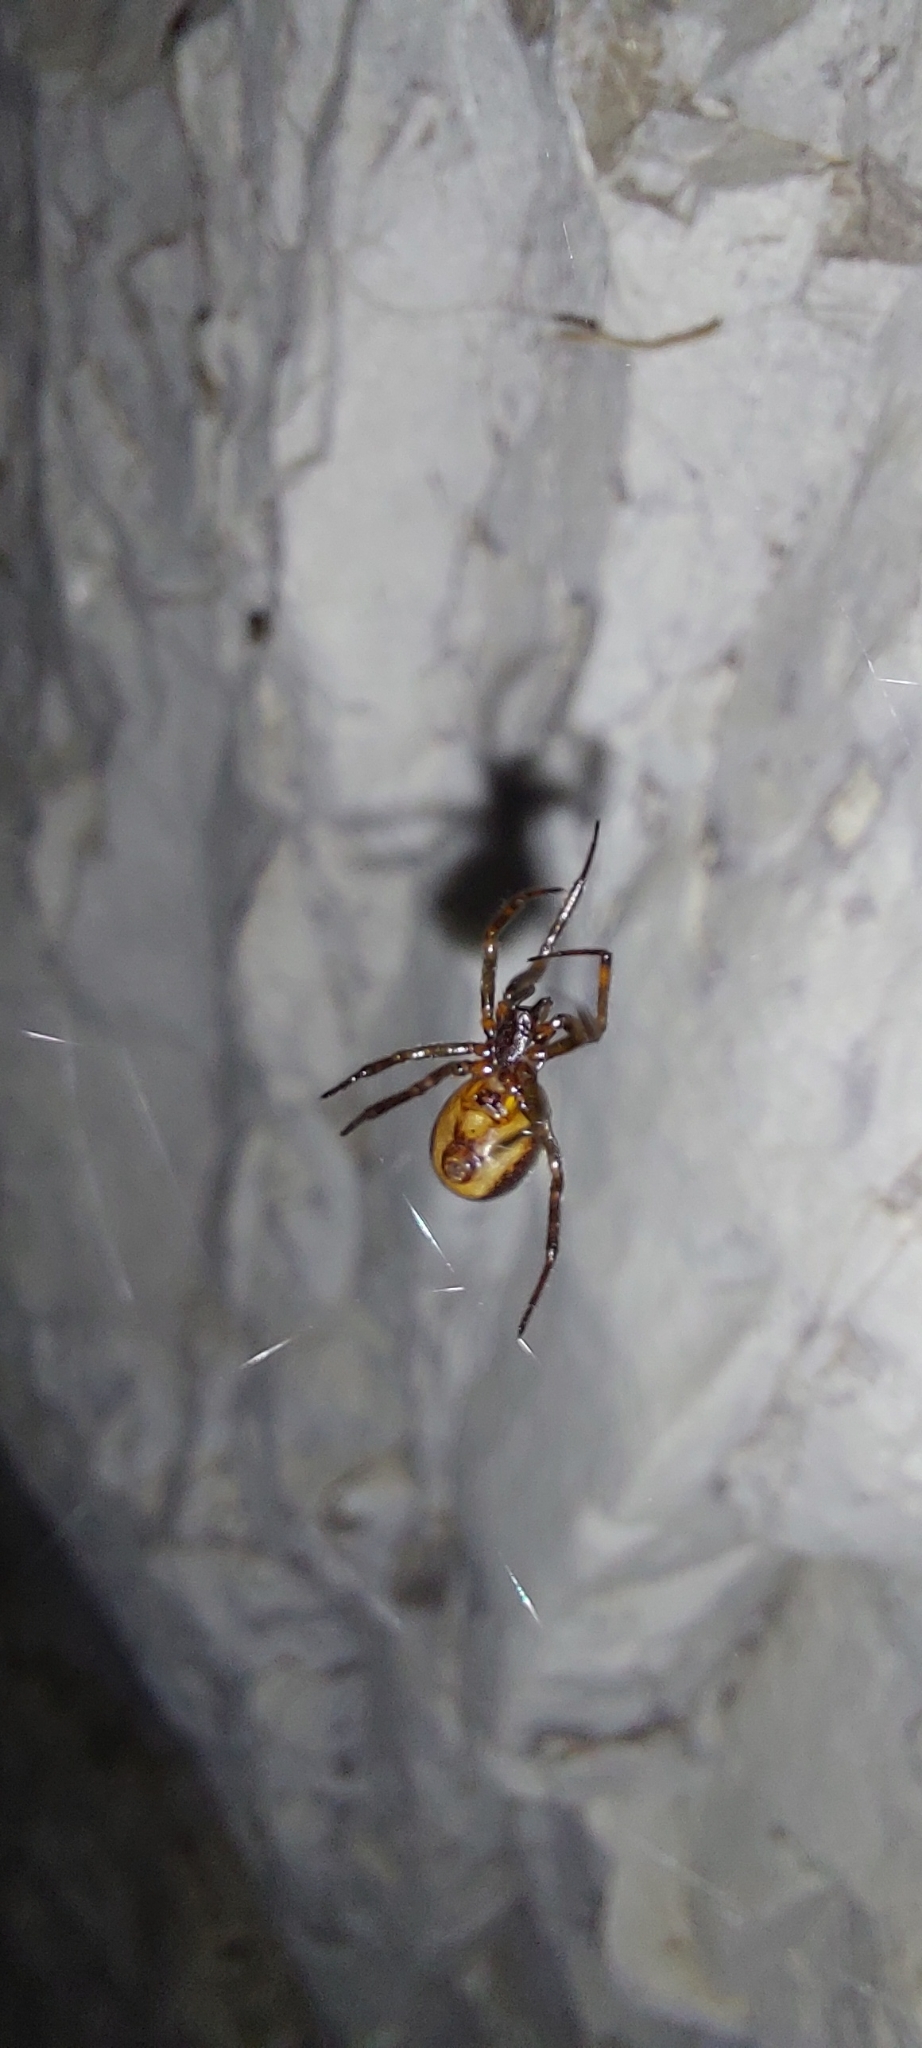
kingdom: Animalia
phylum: Arthropoda
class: Arachnida
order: Araneae
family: Theridiidae
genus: Steatoda
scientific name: Steatoda bipunctata
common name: False widow
